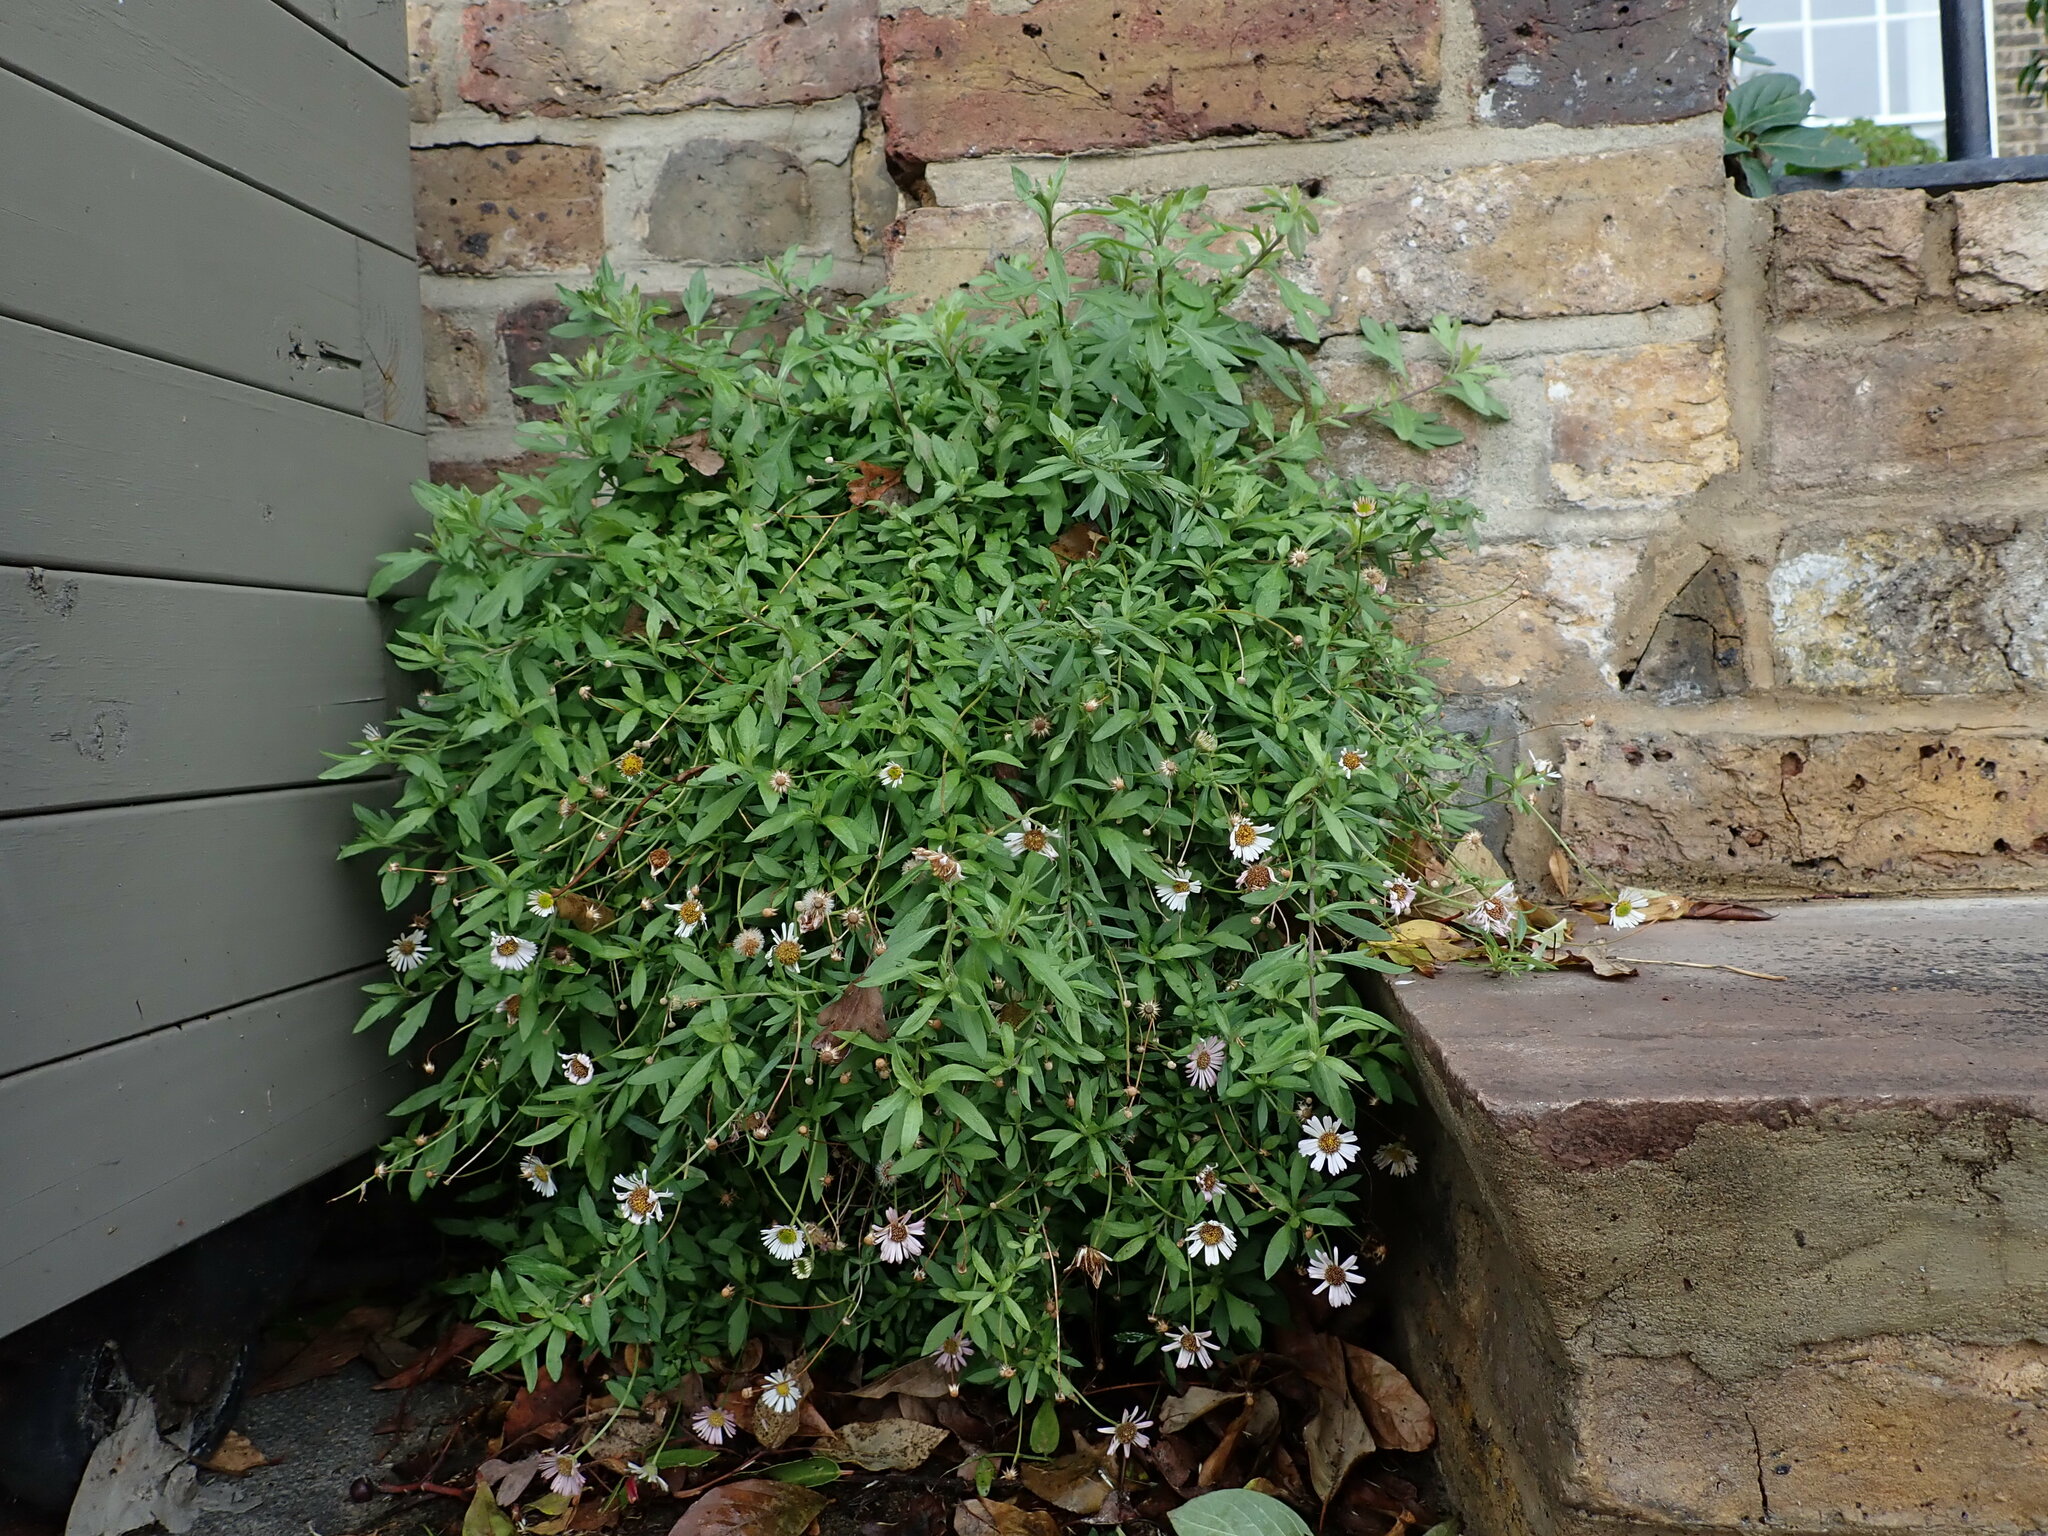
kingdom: Plantae
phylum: Tracheophyta
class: Magnoliopsida
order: Asterales
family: Asteraceae
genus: Erigeron
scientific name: Erigeron karvinskianus
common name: Mexican fleabane
